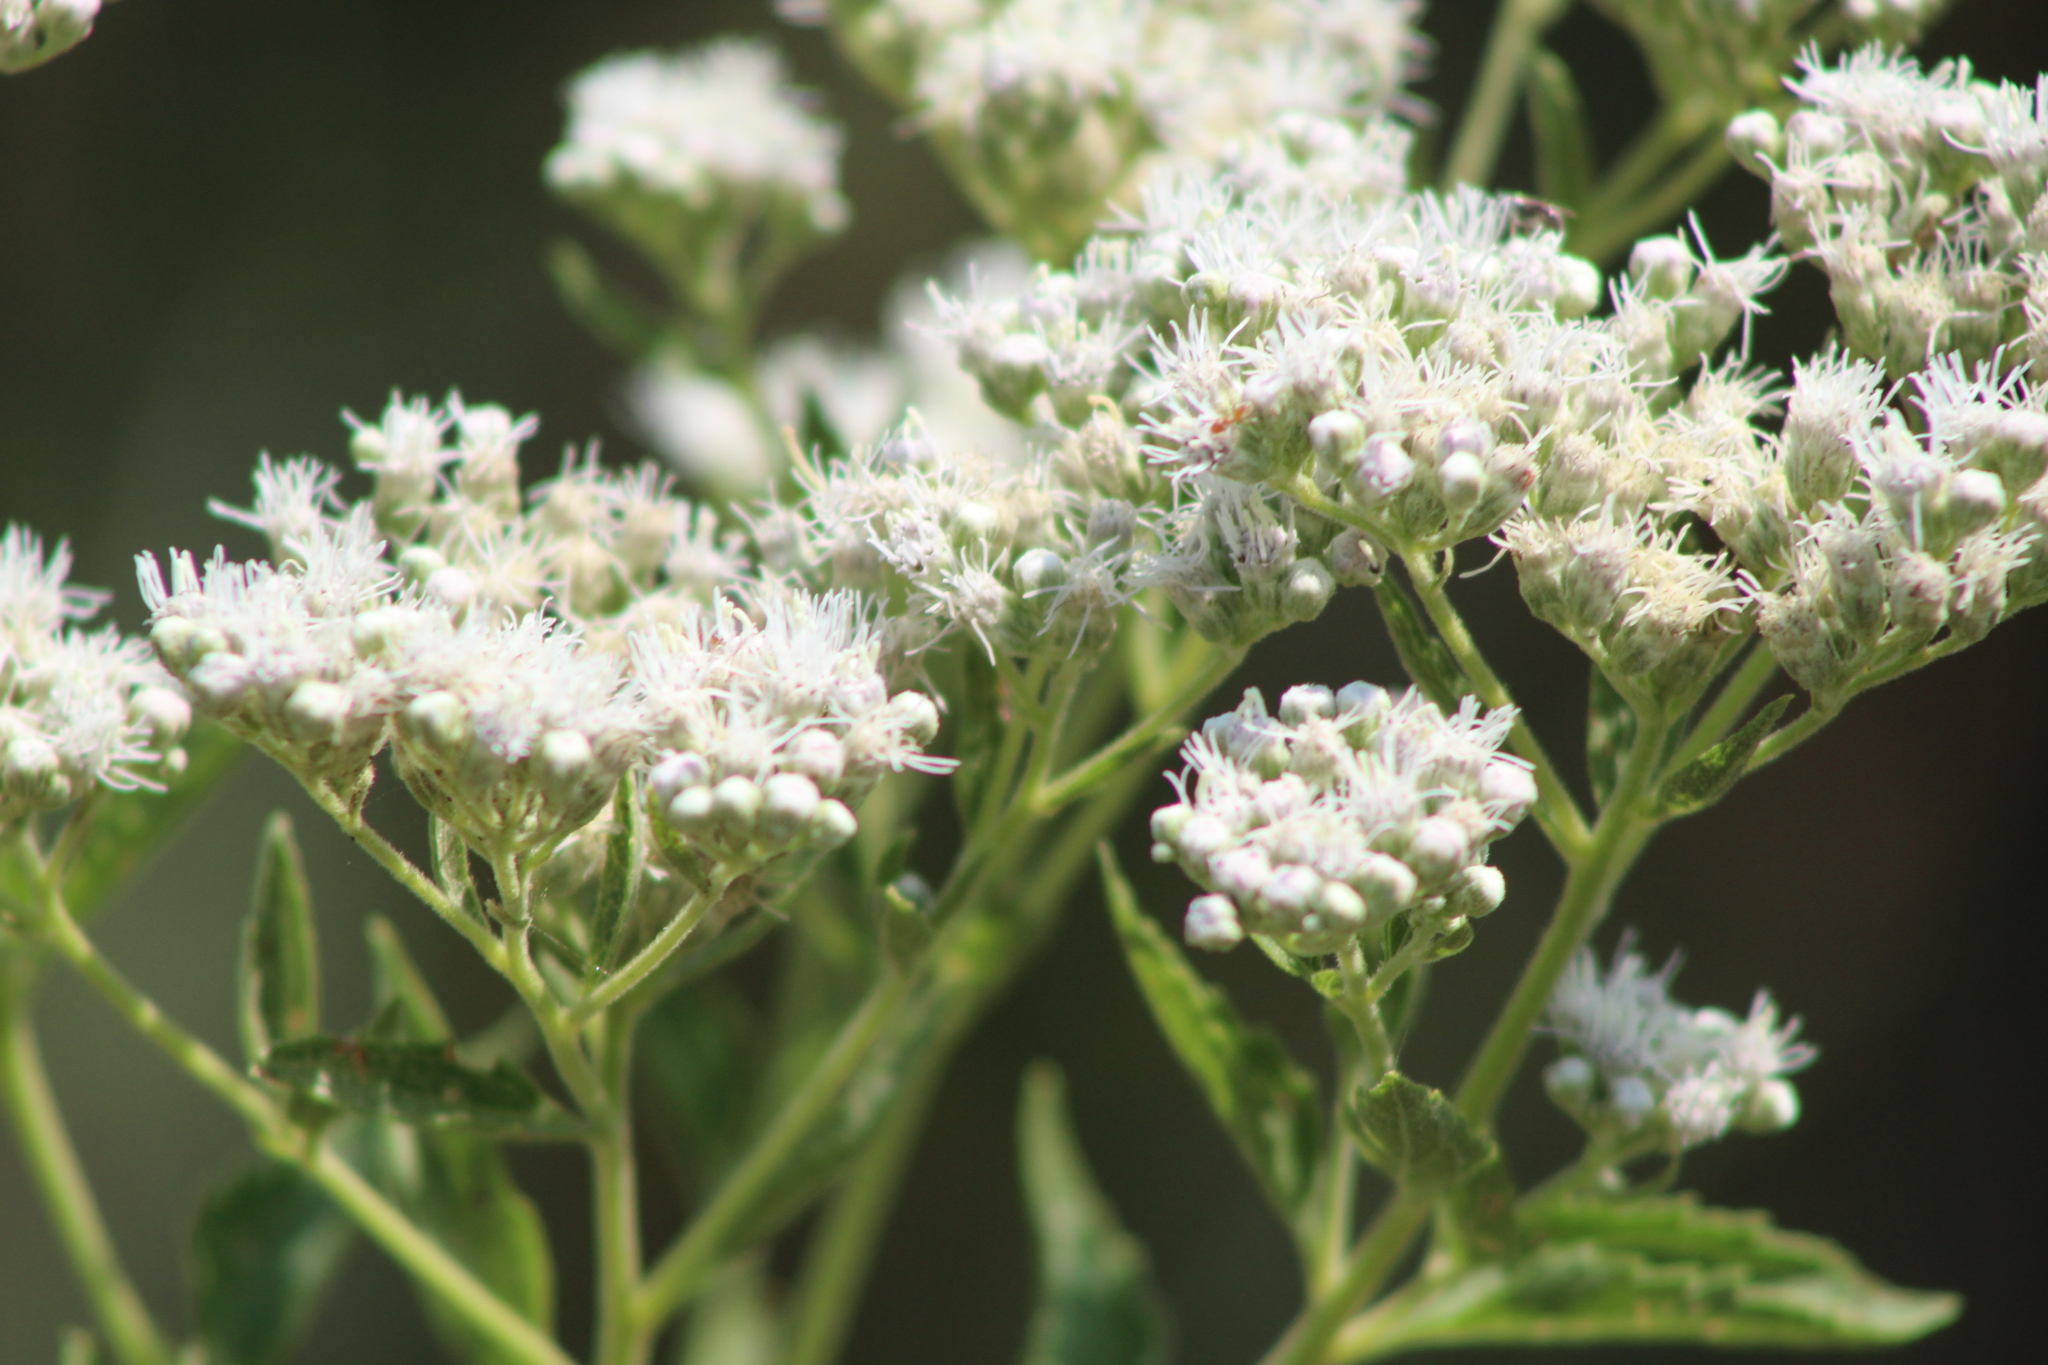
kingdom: Plantae
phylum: Tracheophyta
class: Magnoliopsida
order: Asterales
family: Asteraceae
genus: Eupatorium
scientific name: Eupatorium serotinum
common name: Late boneset
